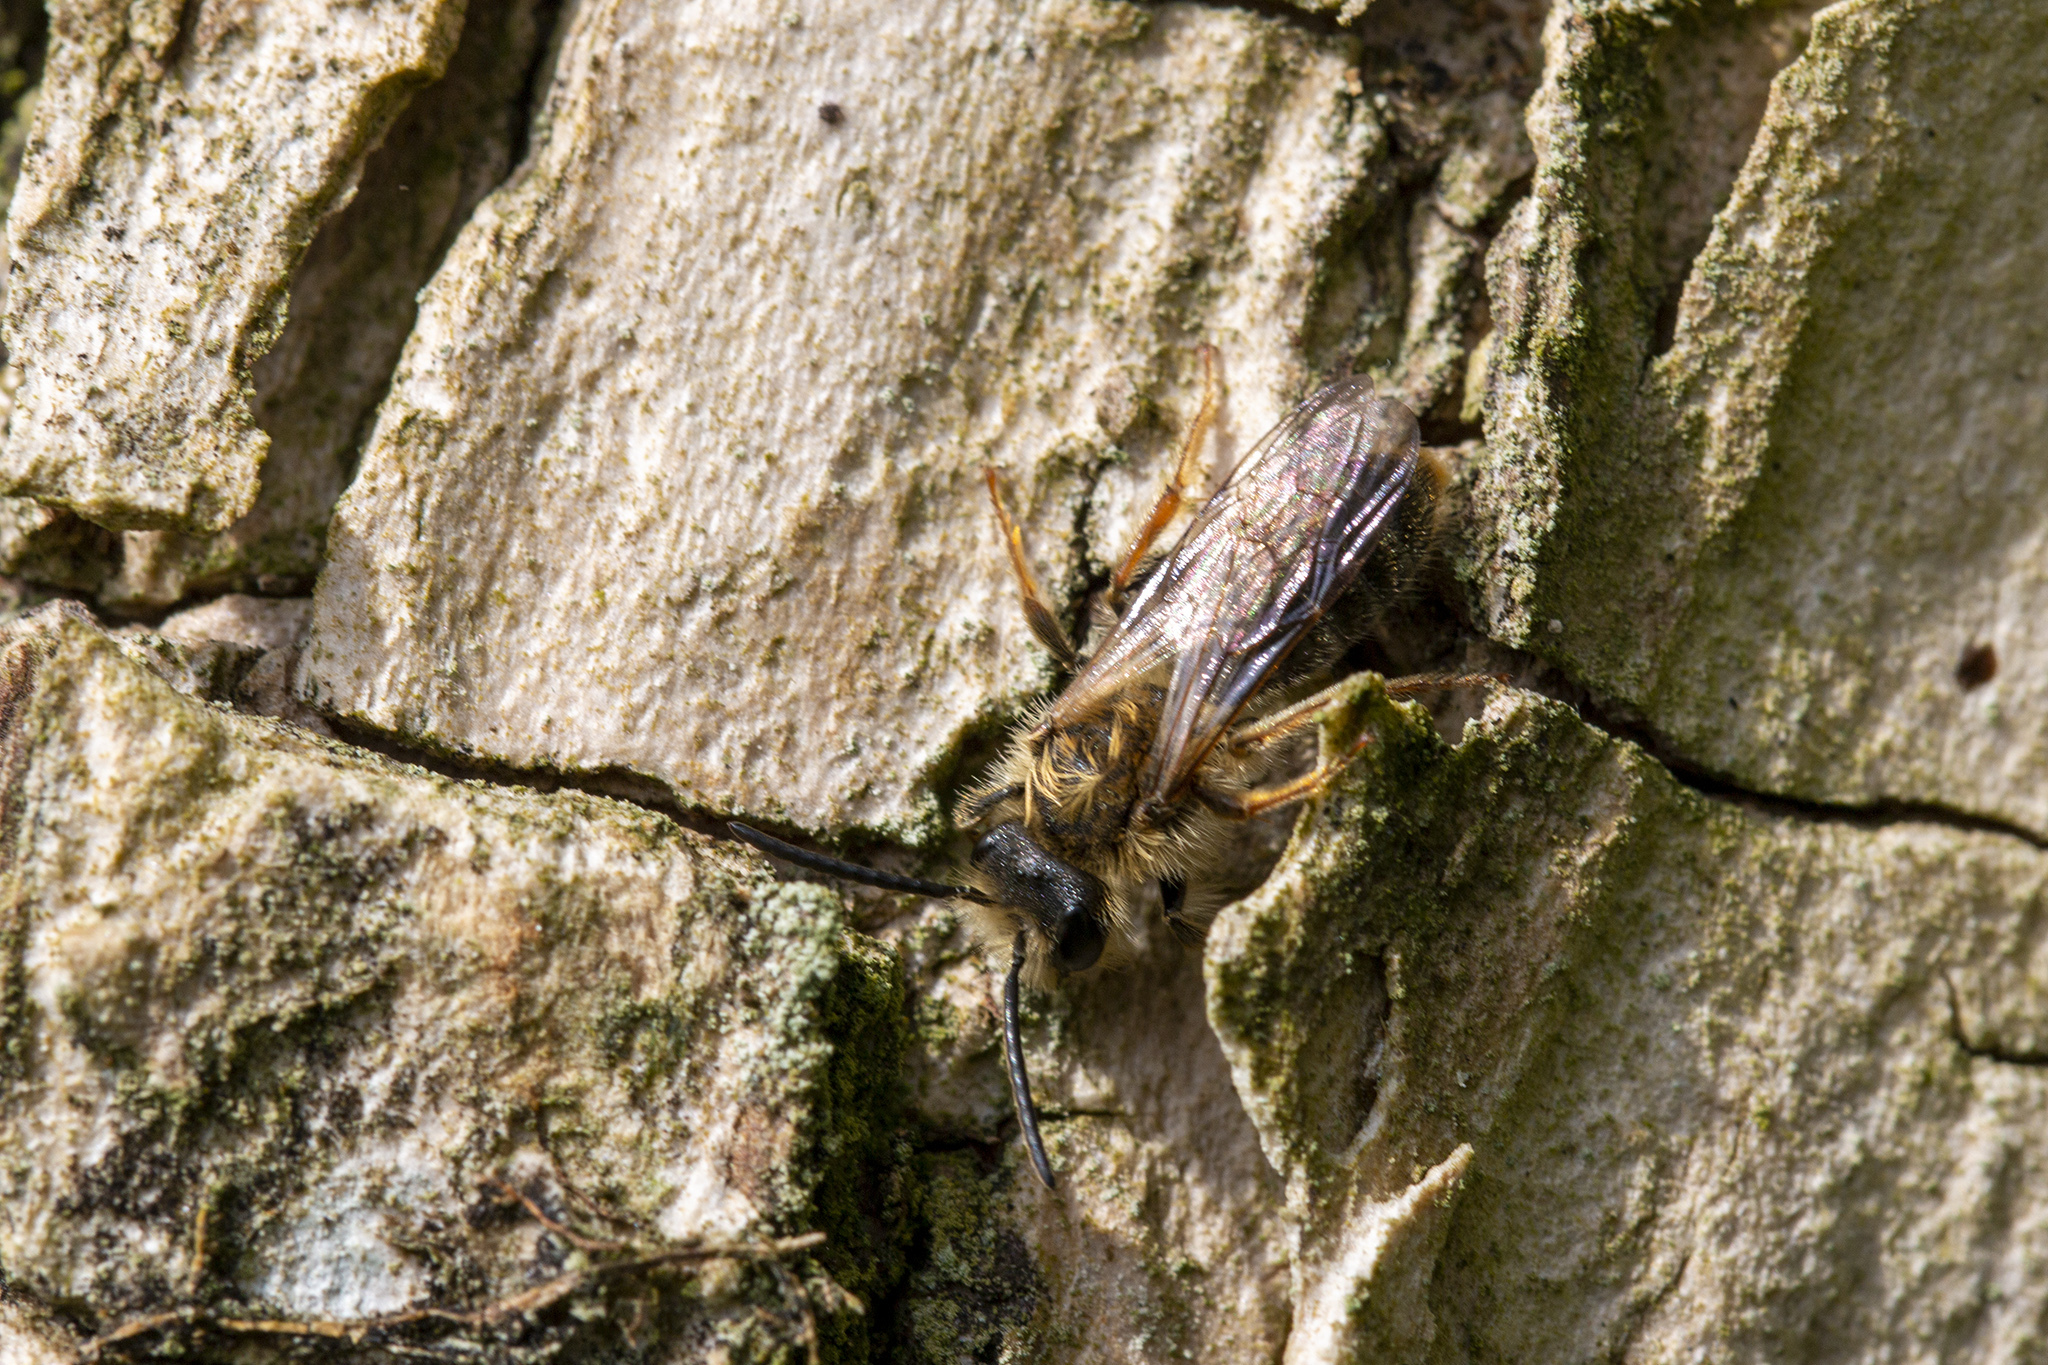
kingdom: Animalia
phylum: Arthropoda
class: Insecta
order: Hymenoptera
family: Andrenidae
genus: Andrena
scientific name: Andrena haemorrhoa
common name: Early mining bee
